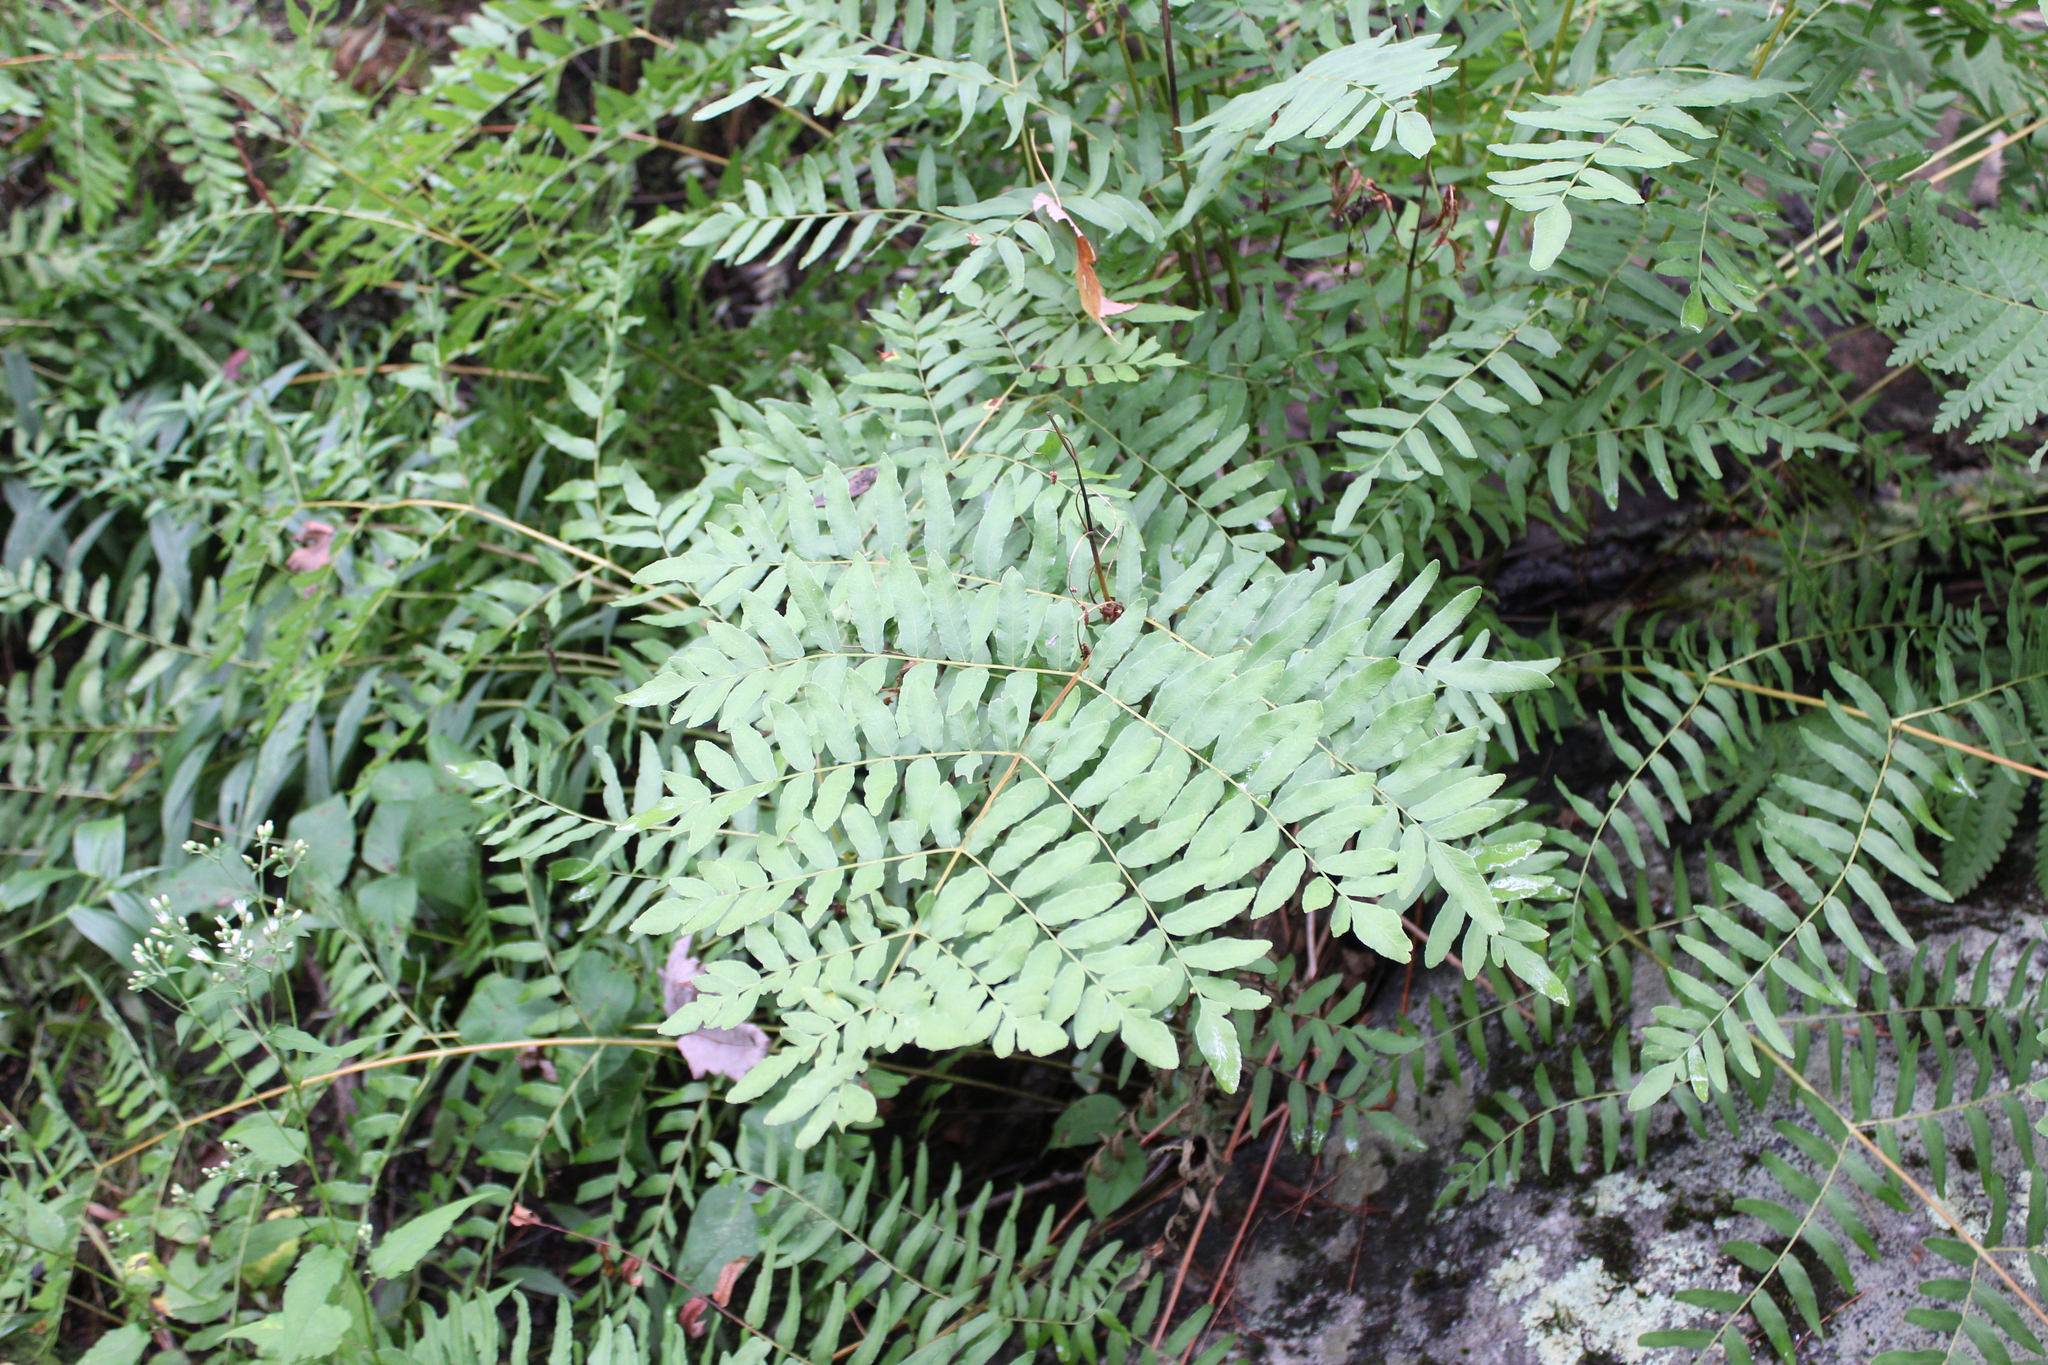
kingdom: Plantae
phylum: Tracheophyta
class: Polypodiopsida
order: Osmundales
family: Osmundaceae
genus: Osmunda
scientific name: Osmunda spectabilis
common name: American royal fern
